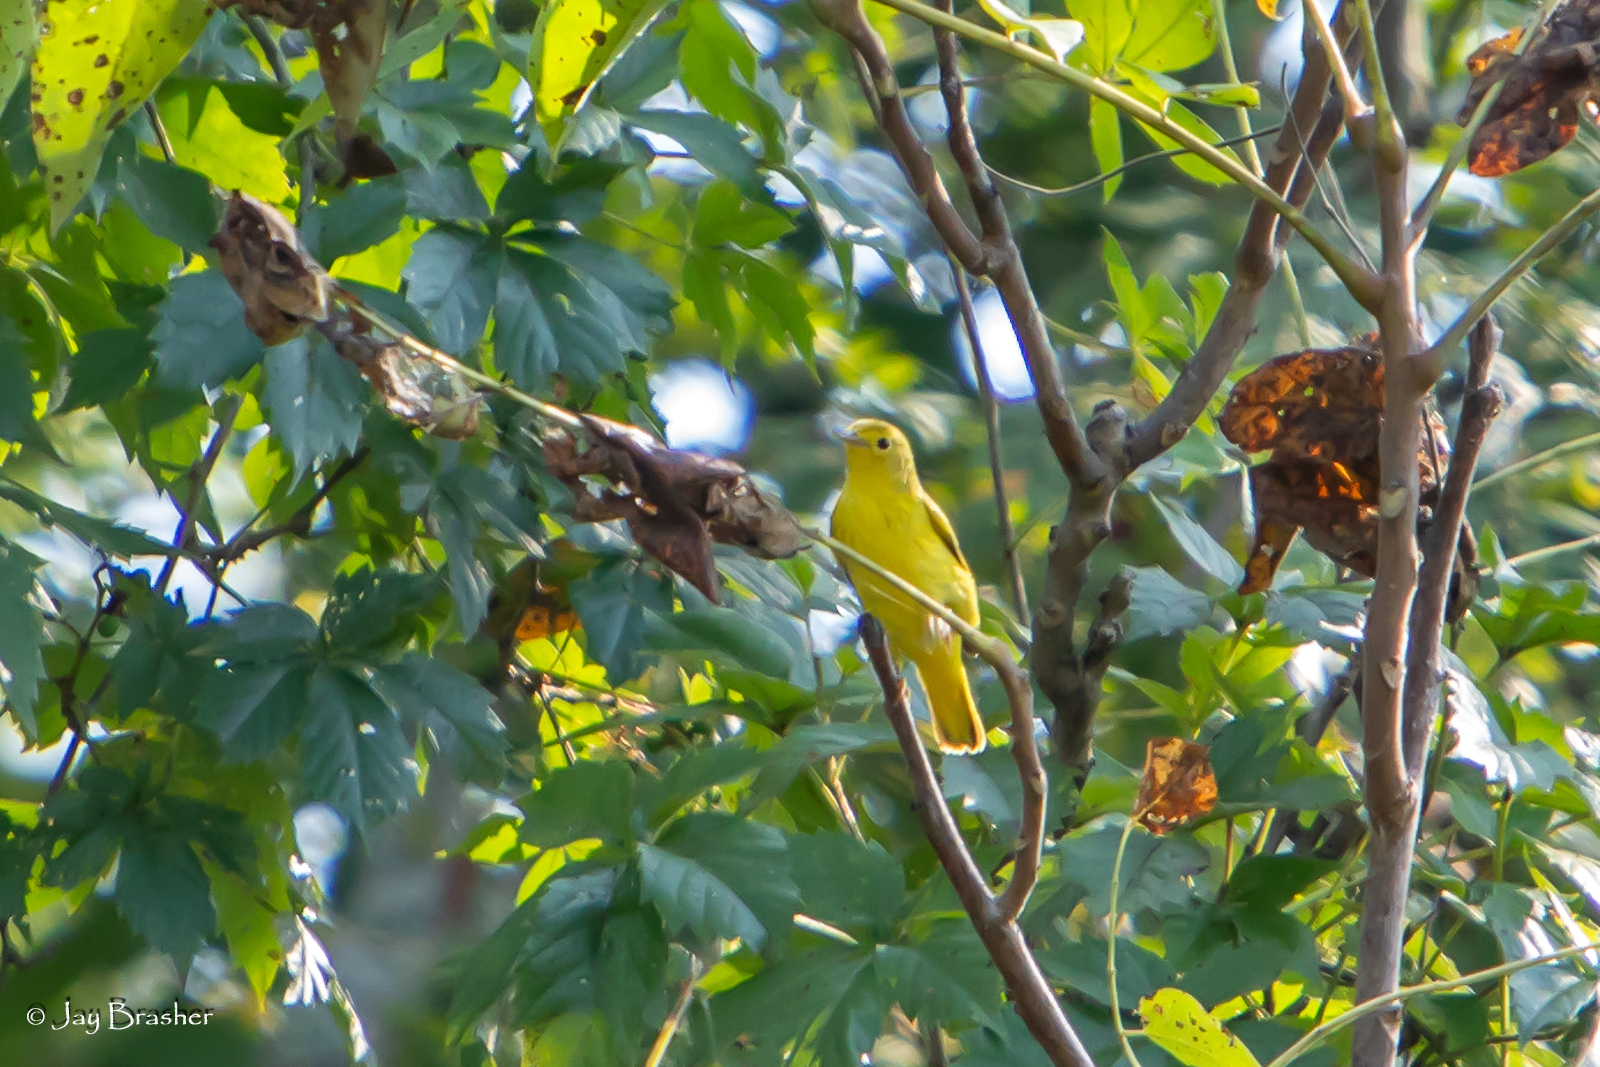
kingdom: Animalia
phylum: Chordata
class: Aves
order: Passeriformes
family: Parulidae
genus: Setophaga
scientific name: Setophaga petechia
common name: Yellow warbler
